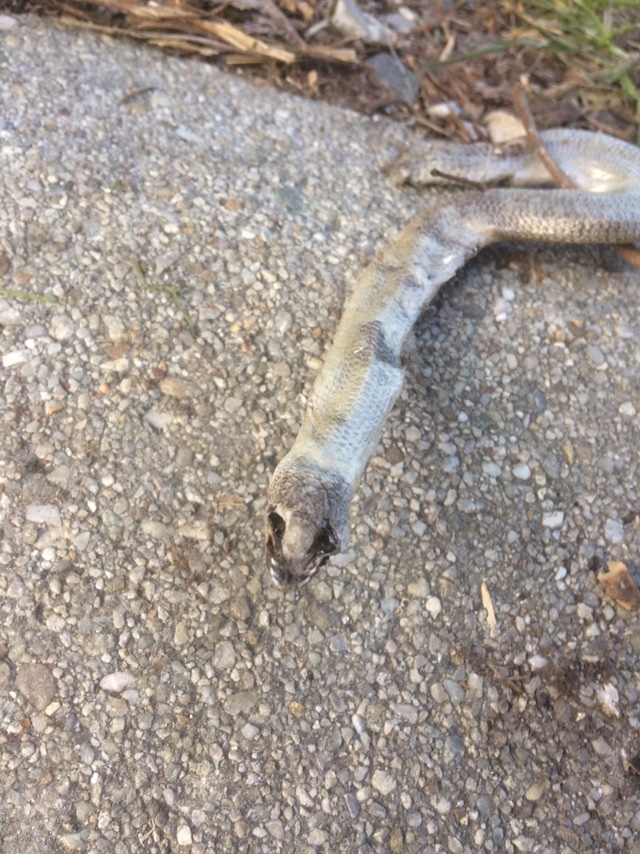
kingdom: Animalia
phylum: Chordata
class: Squamata
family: Anguidae
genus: Anguis
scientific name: Anguis fragilis
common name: Slow worm
